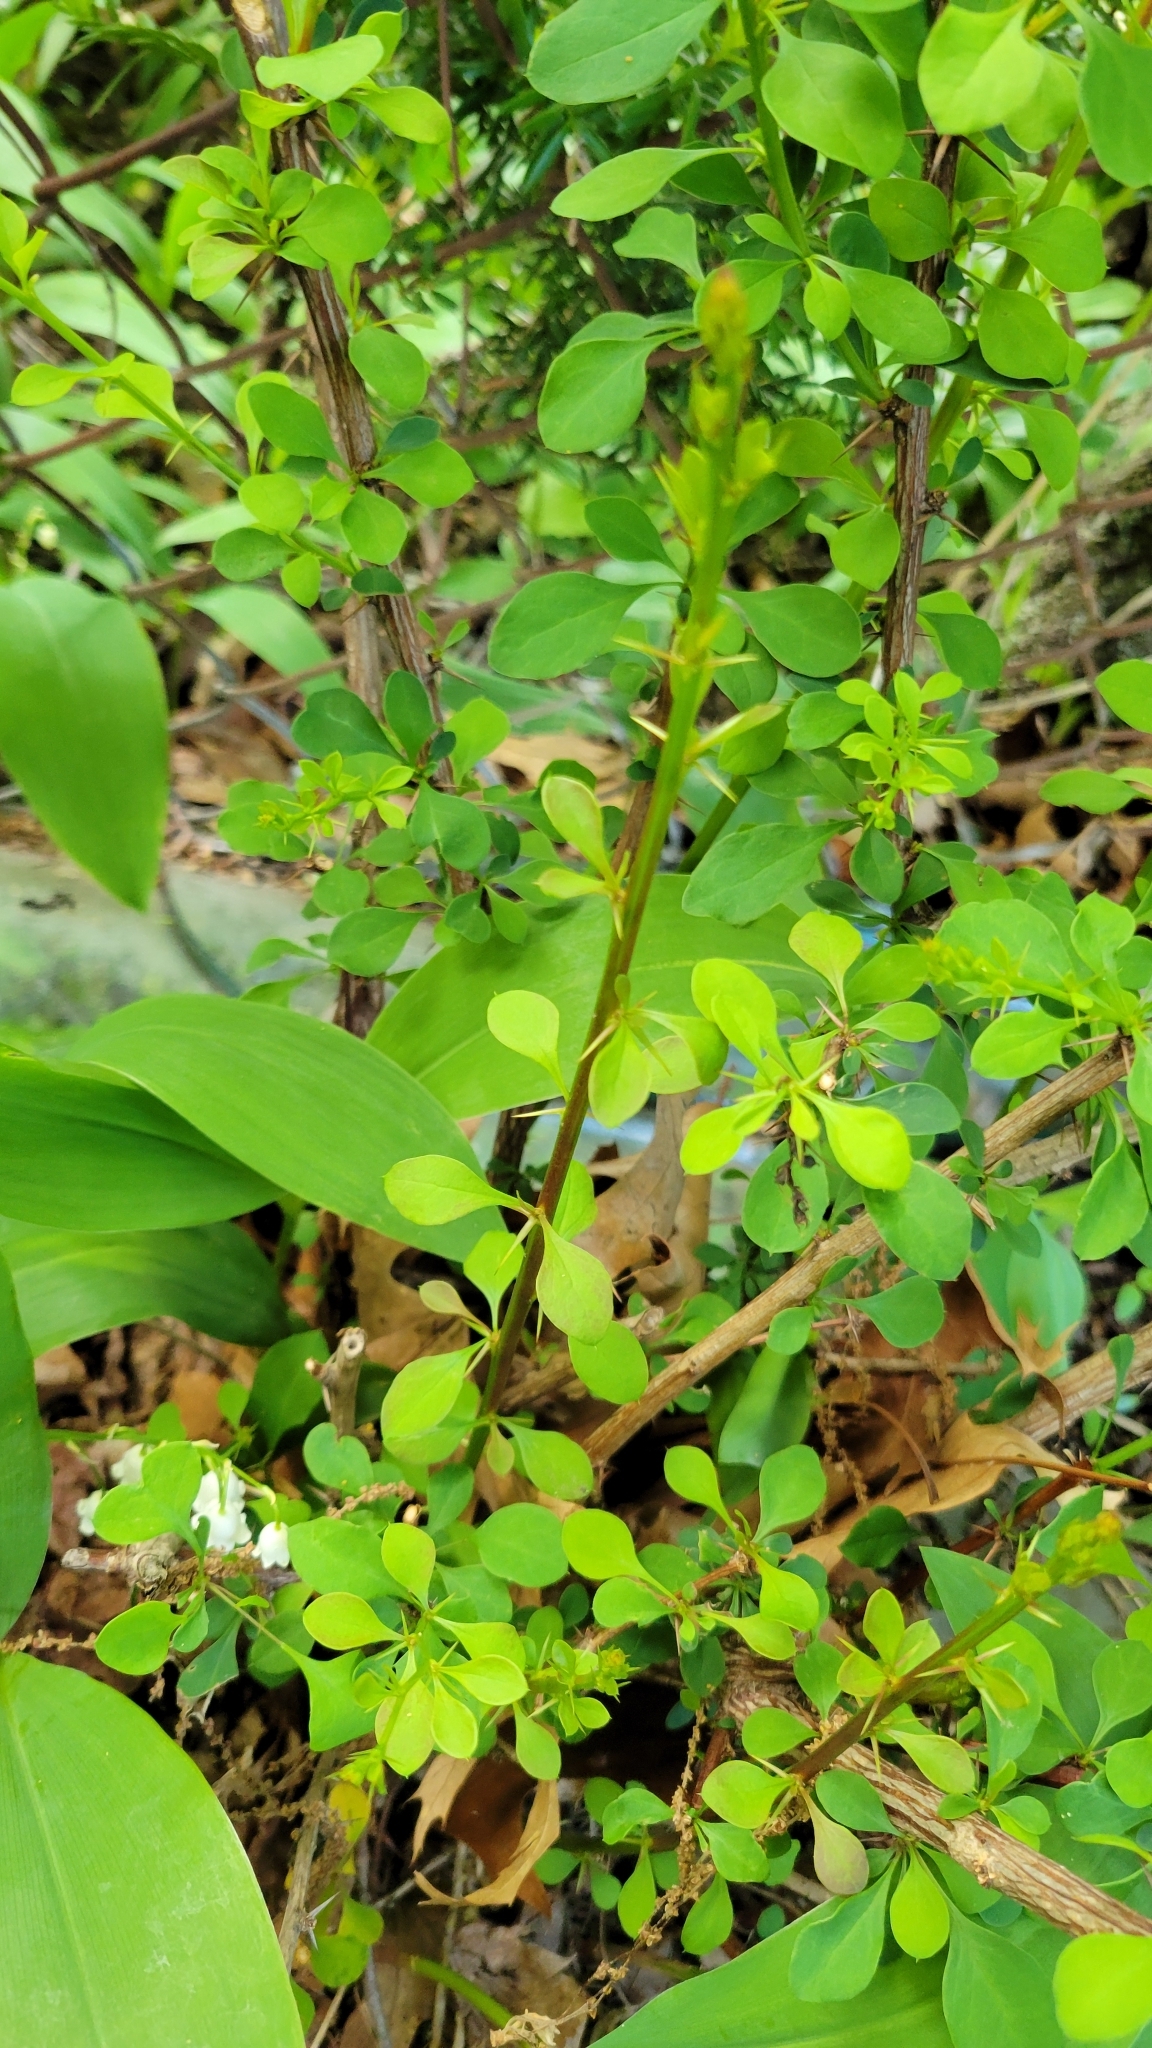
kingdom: Plantae
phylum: Tracheophyta
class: Magnoliopsida
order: Ranunculales
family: Berberidaceae
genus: Berberis
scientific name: Berberis thunbergii
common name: Japanese barberry
